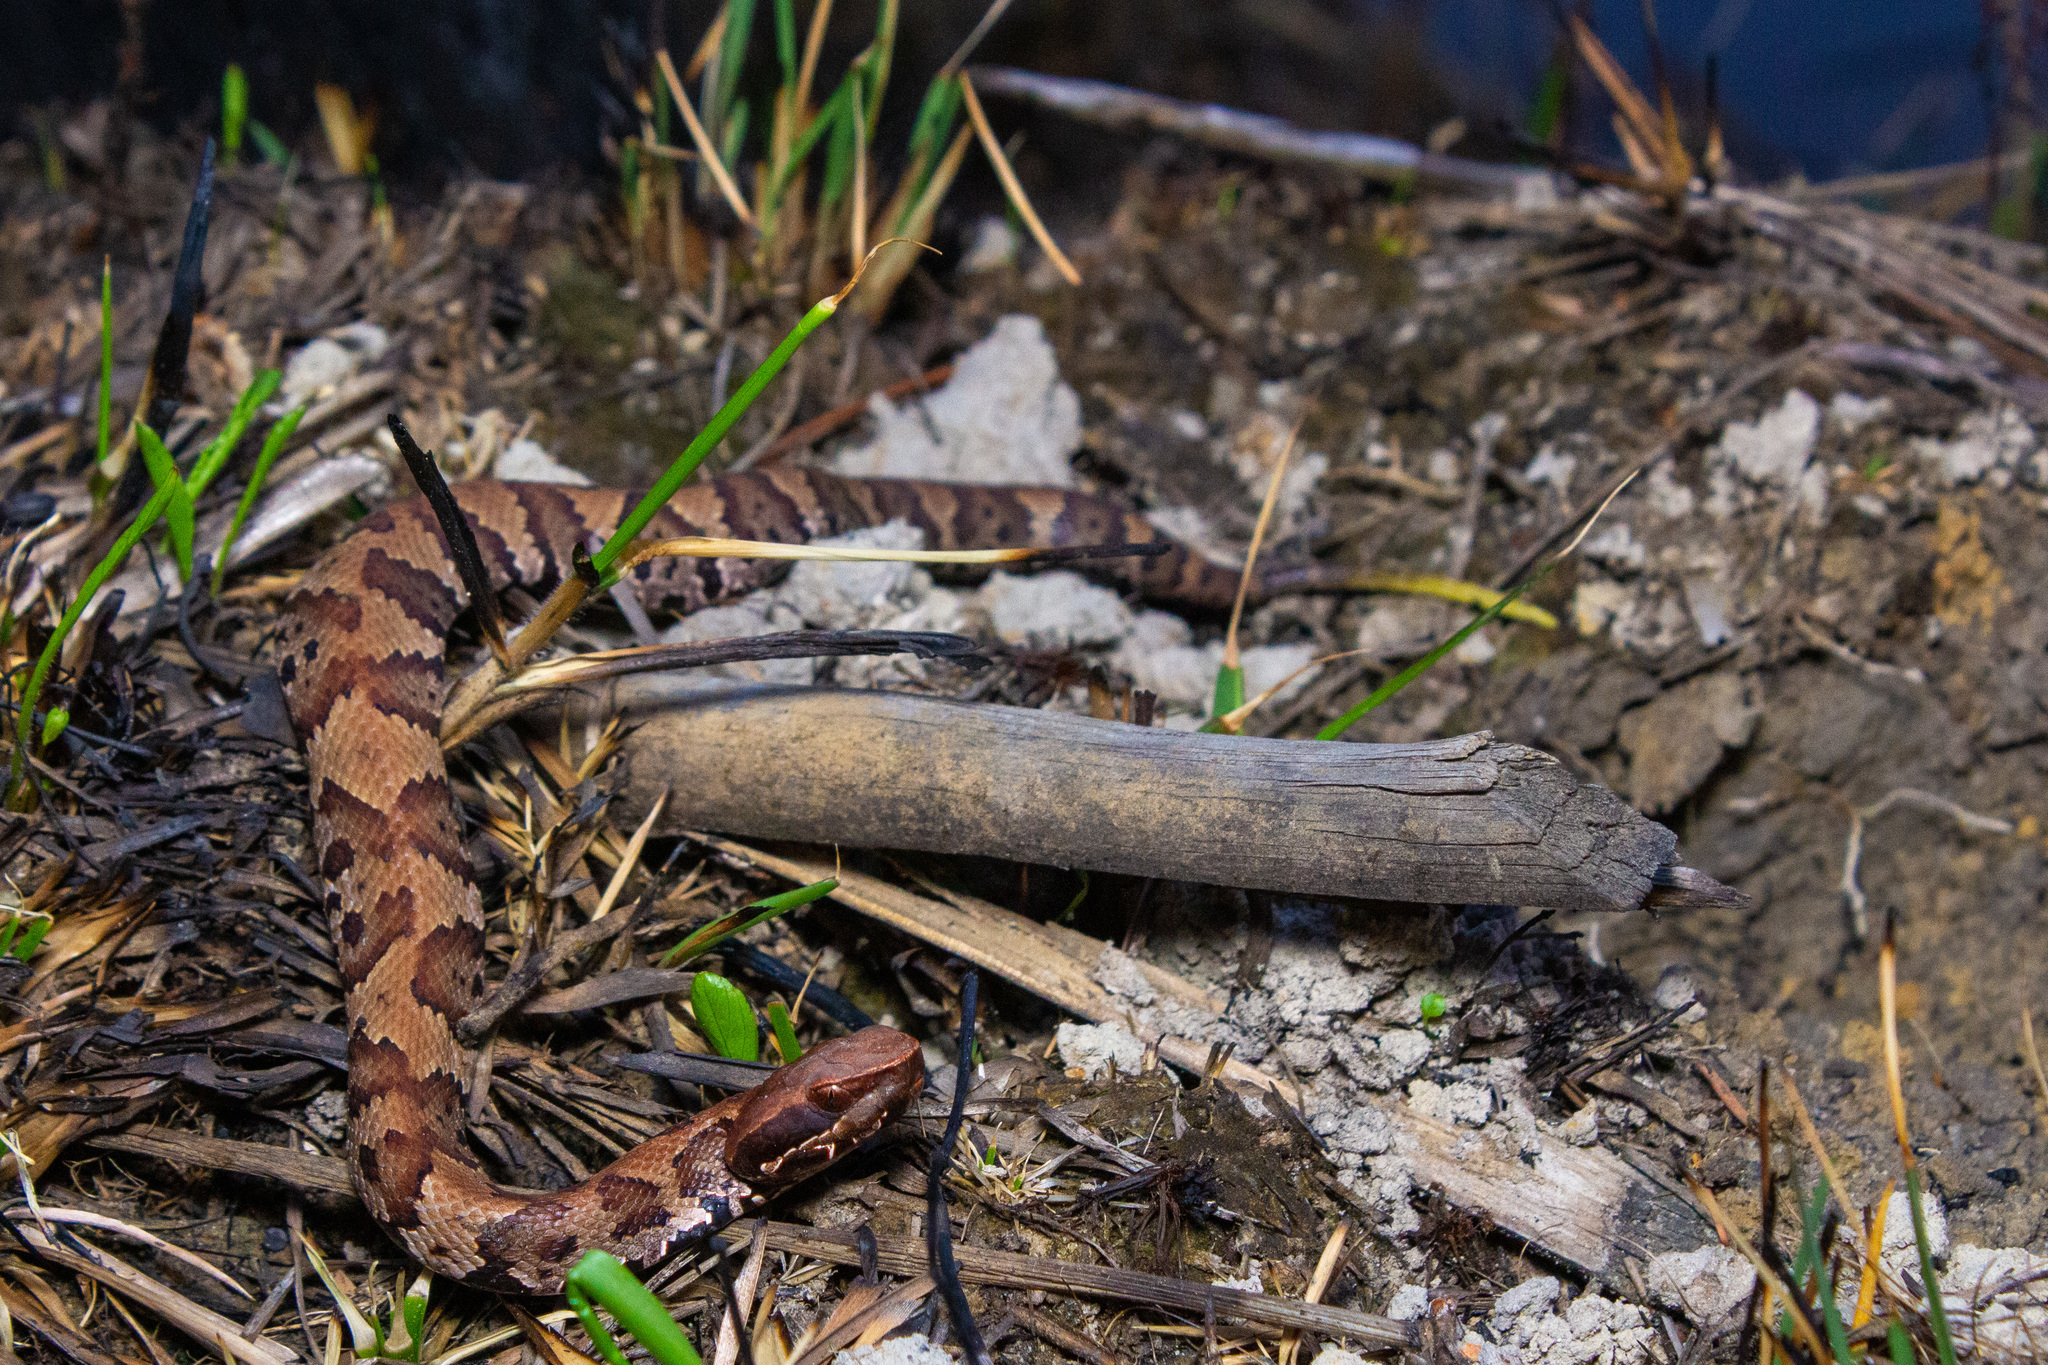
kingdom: Animalia
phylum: Chordata
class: Squamata
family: Viperidae
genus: Agkistrodon
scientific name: Agkistrodon piscivorus
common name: Cottonmouth
